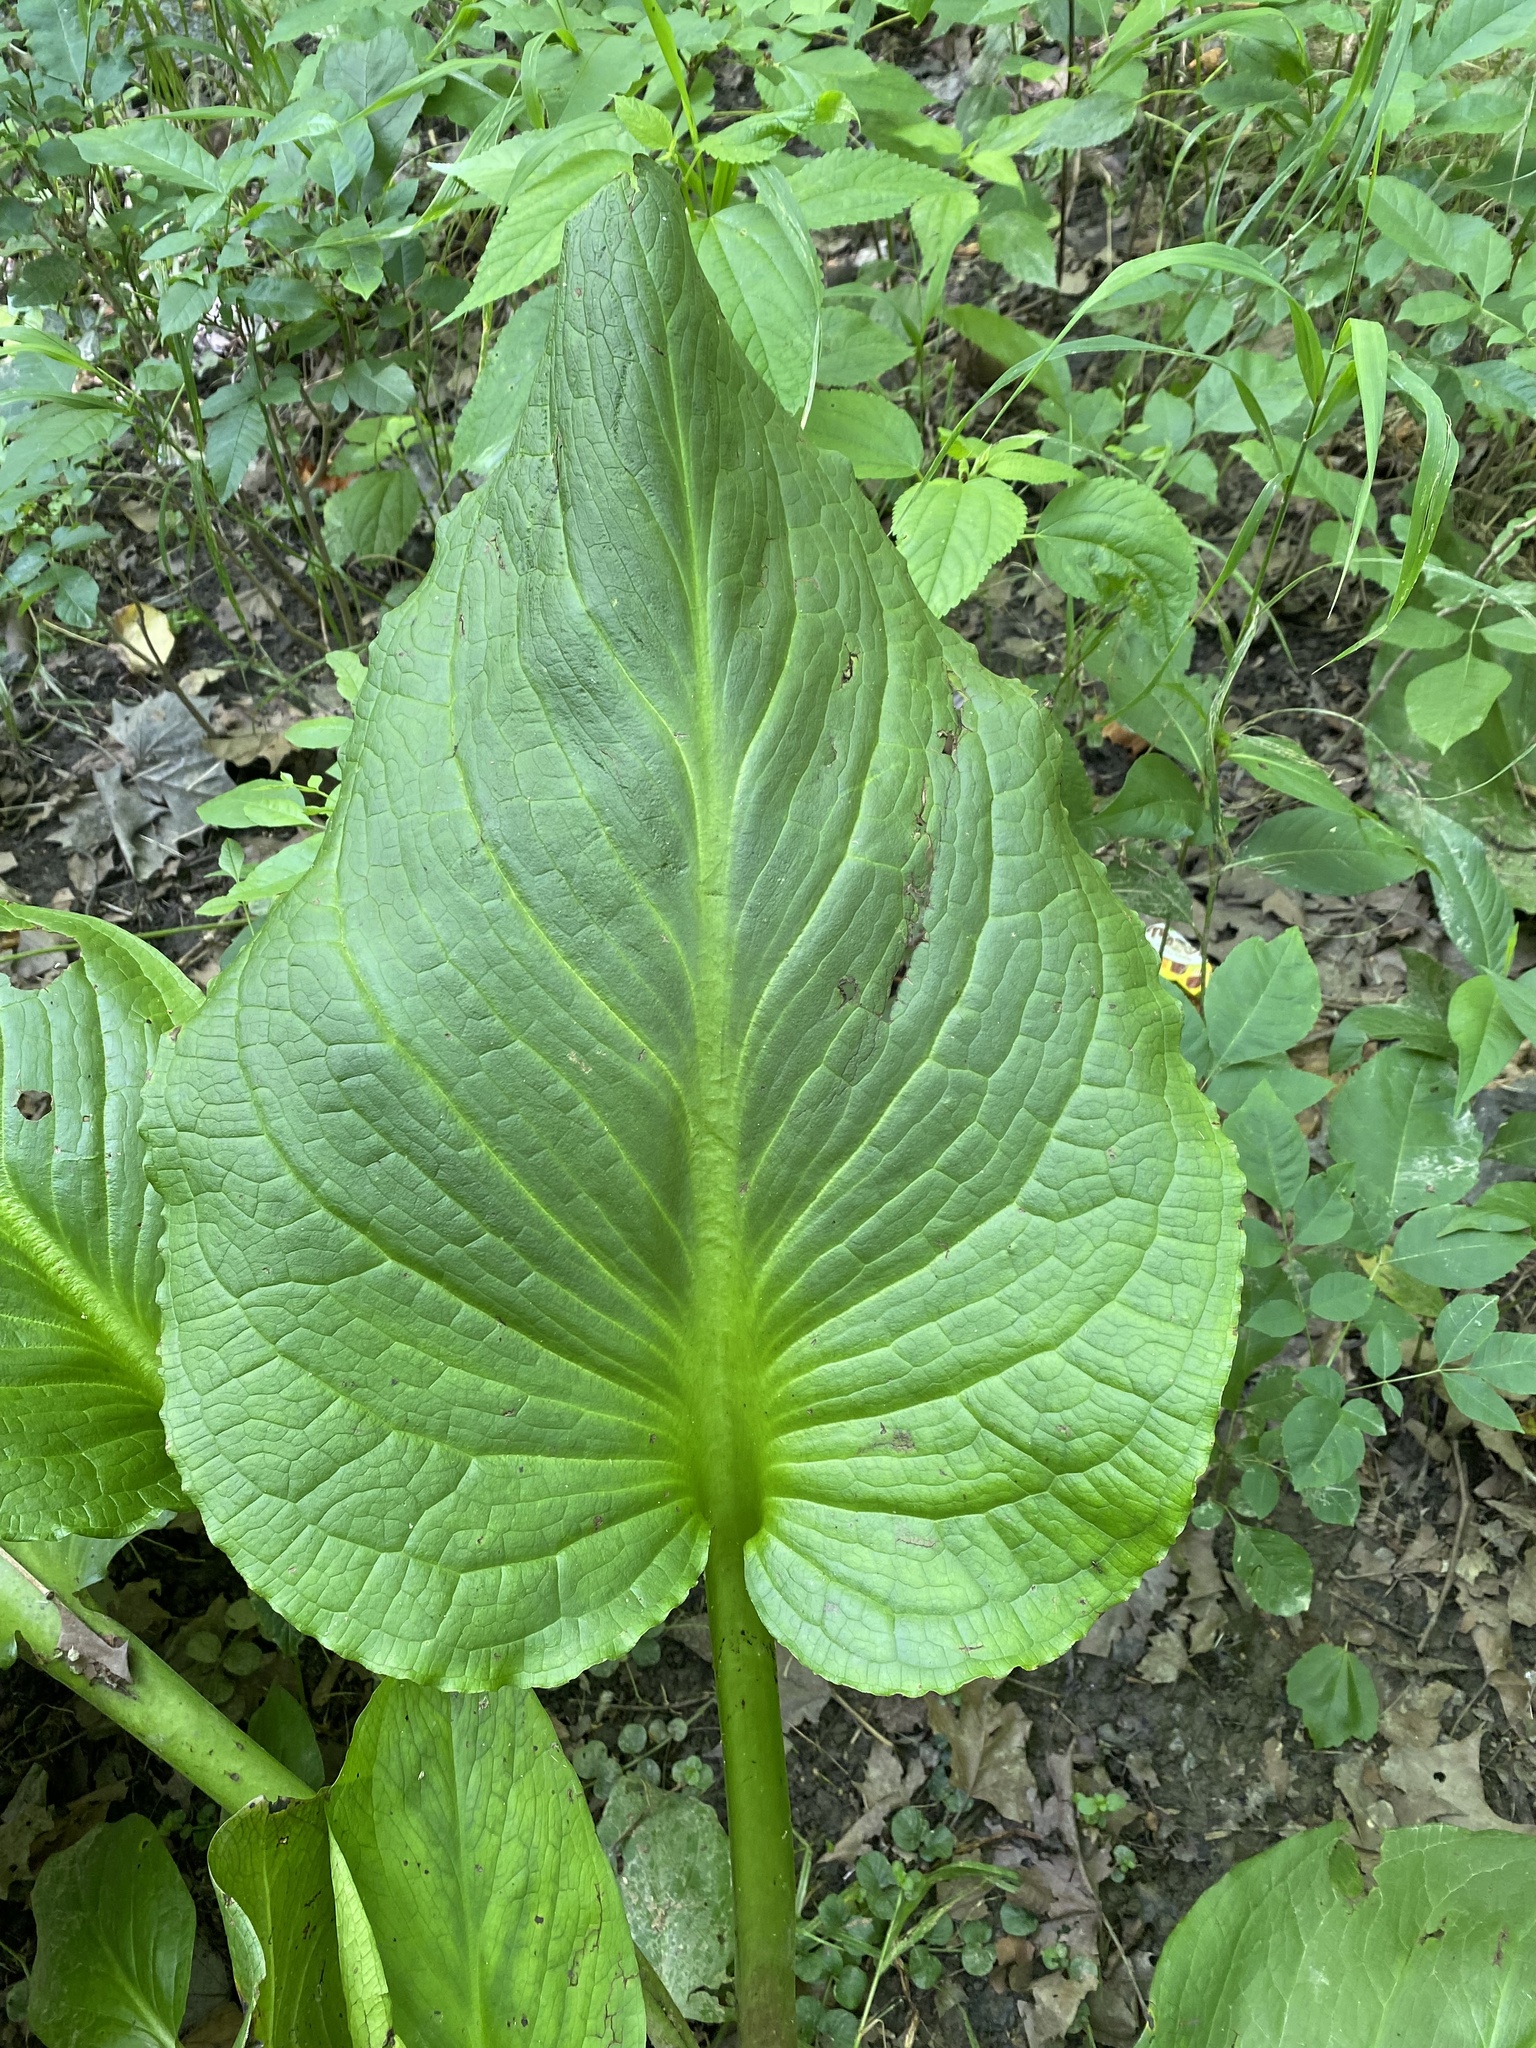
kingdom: Plantae
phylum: Tracheophyta
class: Liliopsida
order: Alismatales
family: Araceae
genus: Symplocarpus
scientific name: Symplocarpus foetidus
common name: Eastern skunk cabbage
